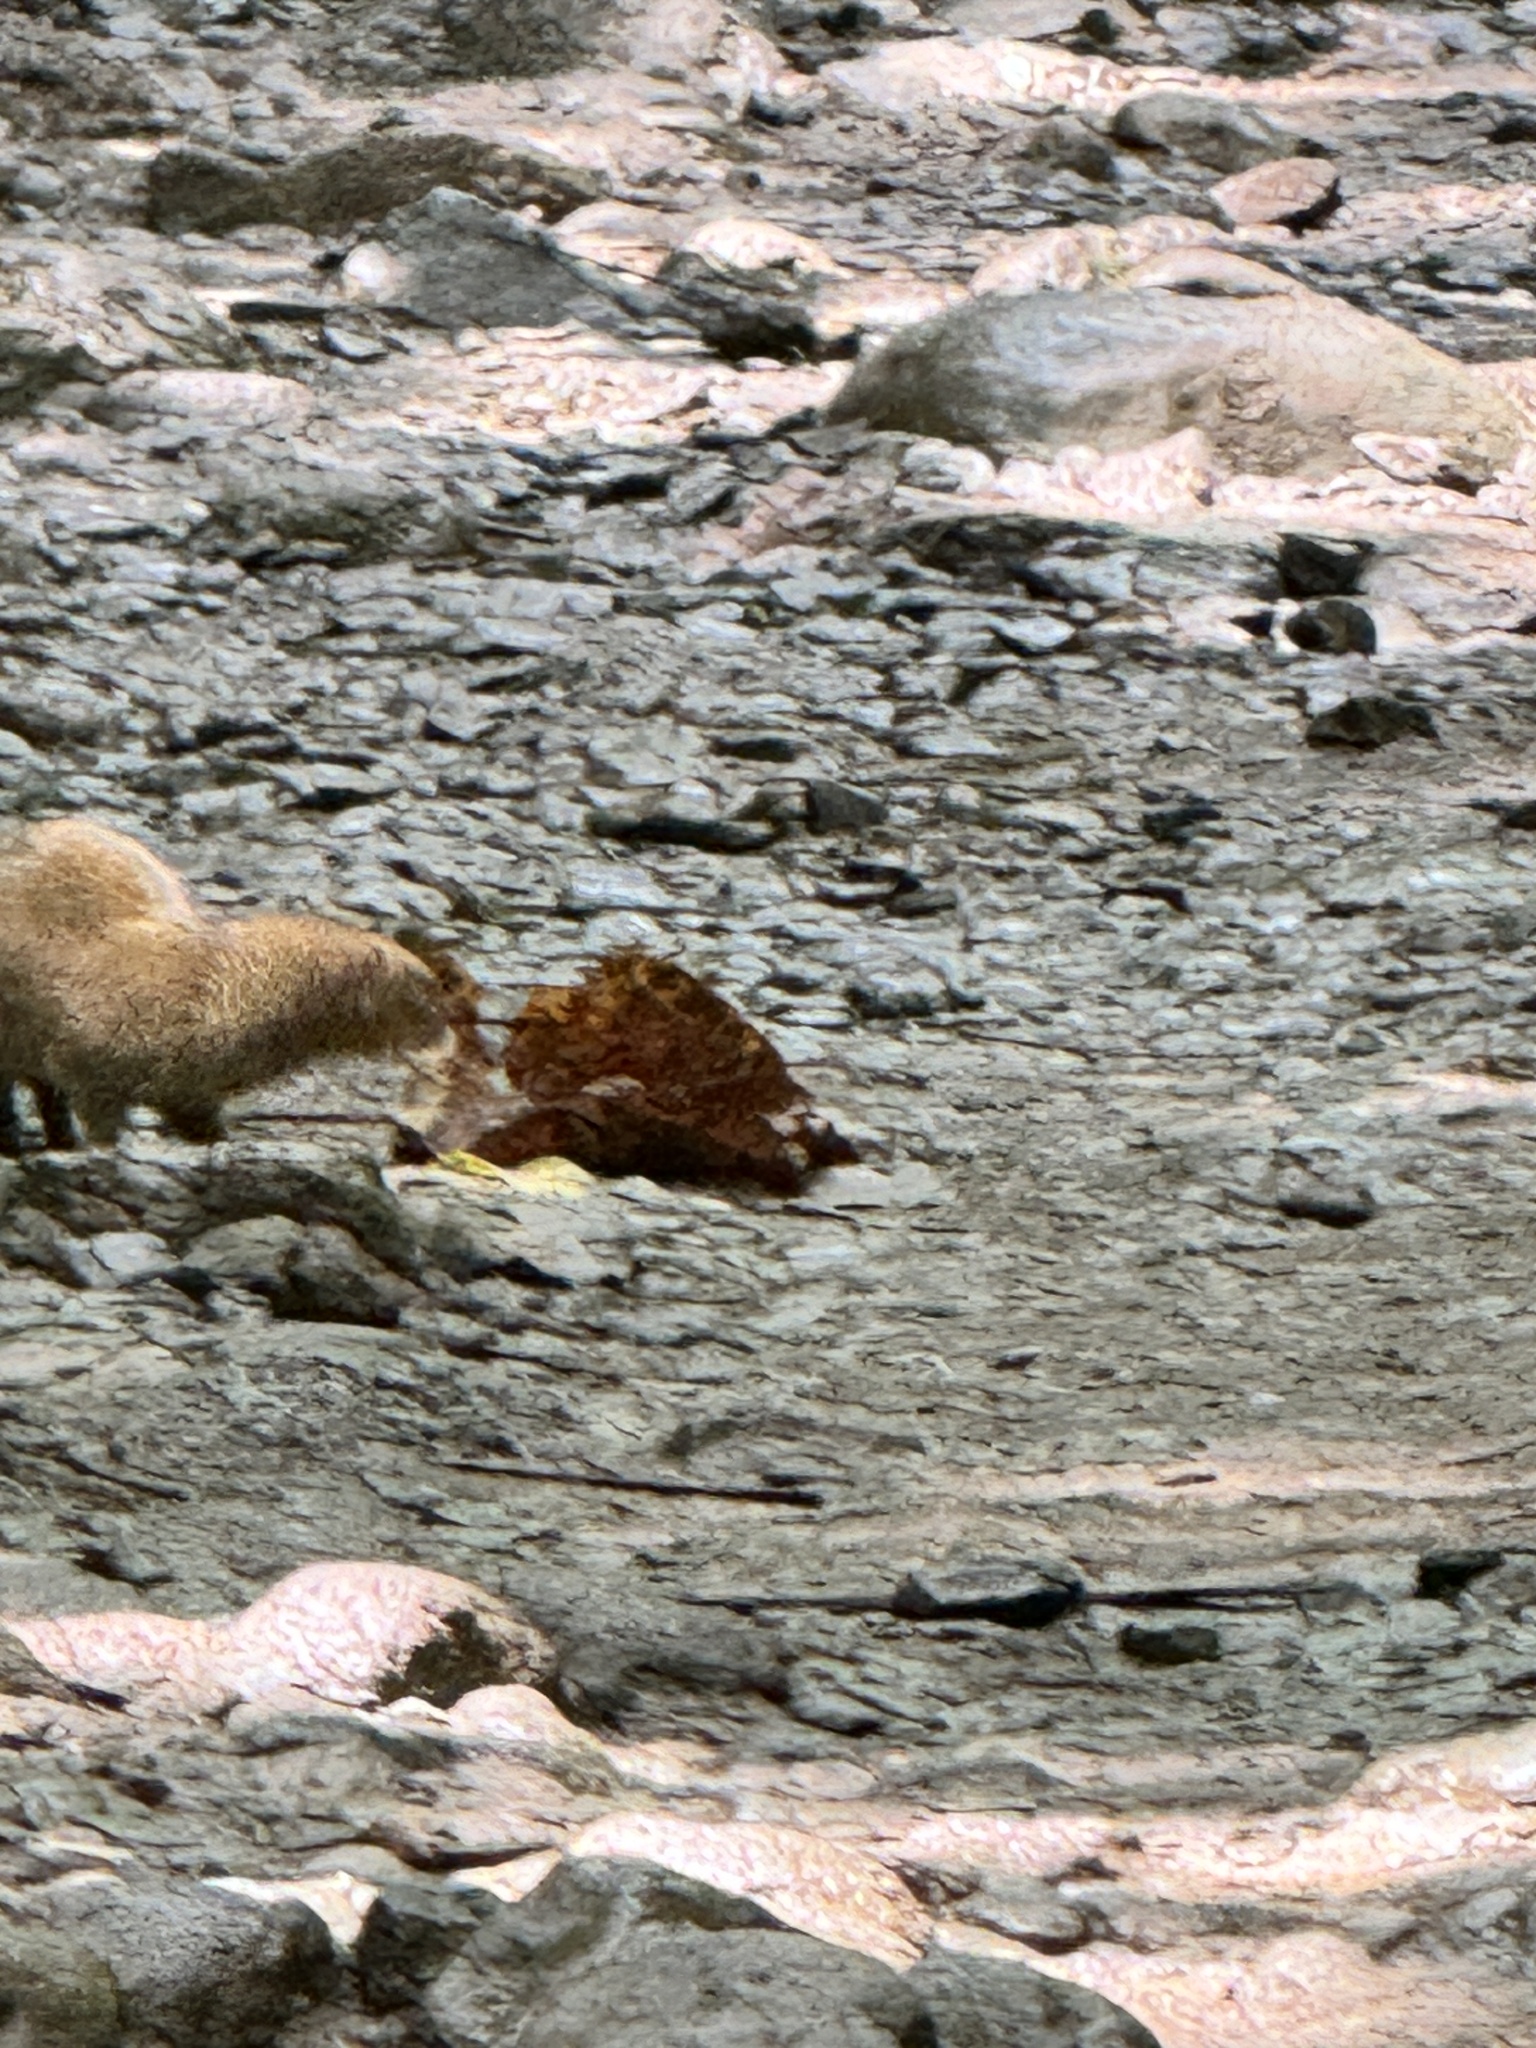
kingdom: Animalia
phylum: Chordata
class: Mammalia
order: Carnivora
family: Herpestidae
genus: Herpestes
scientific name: Herpestes javanicus
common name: Small asian mongoose
